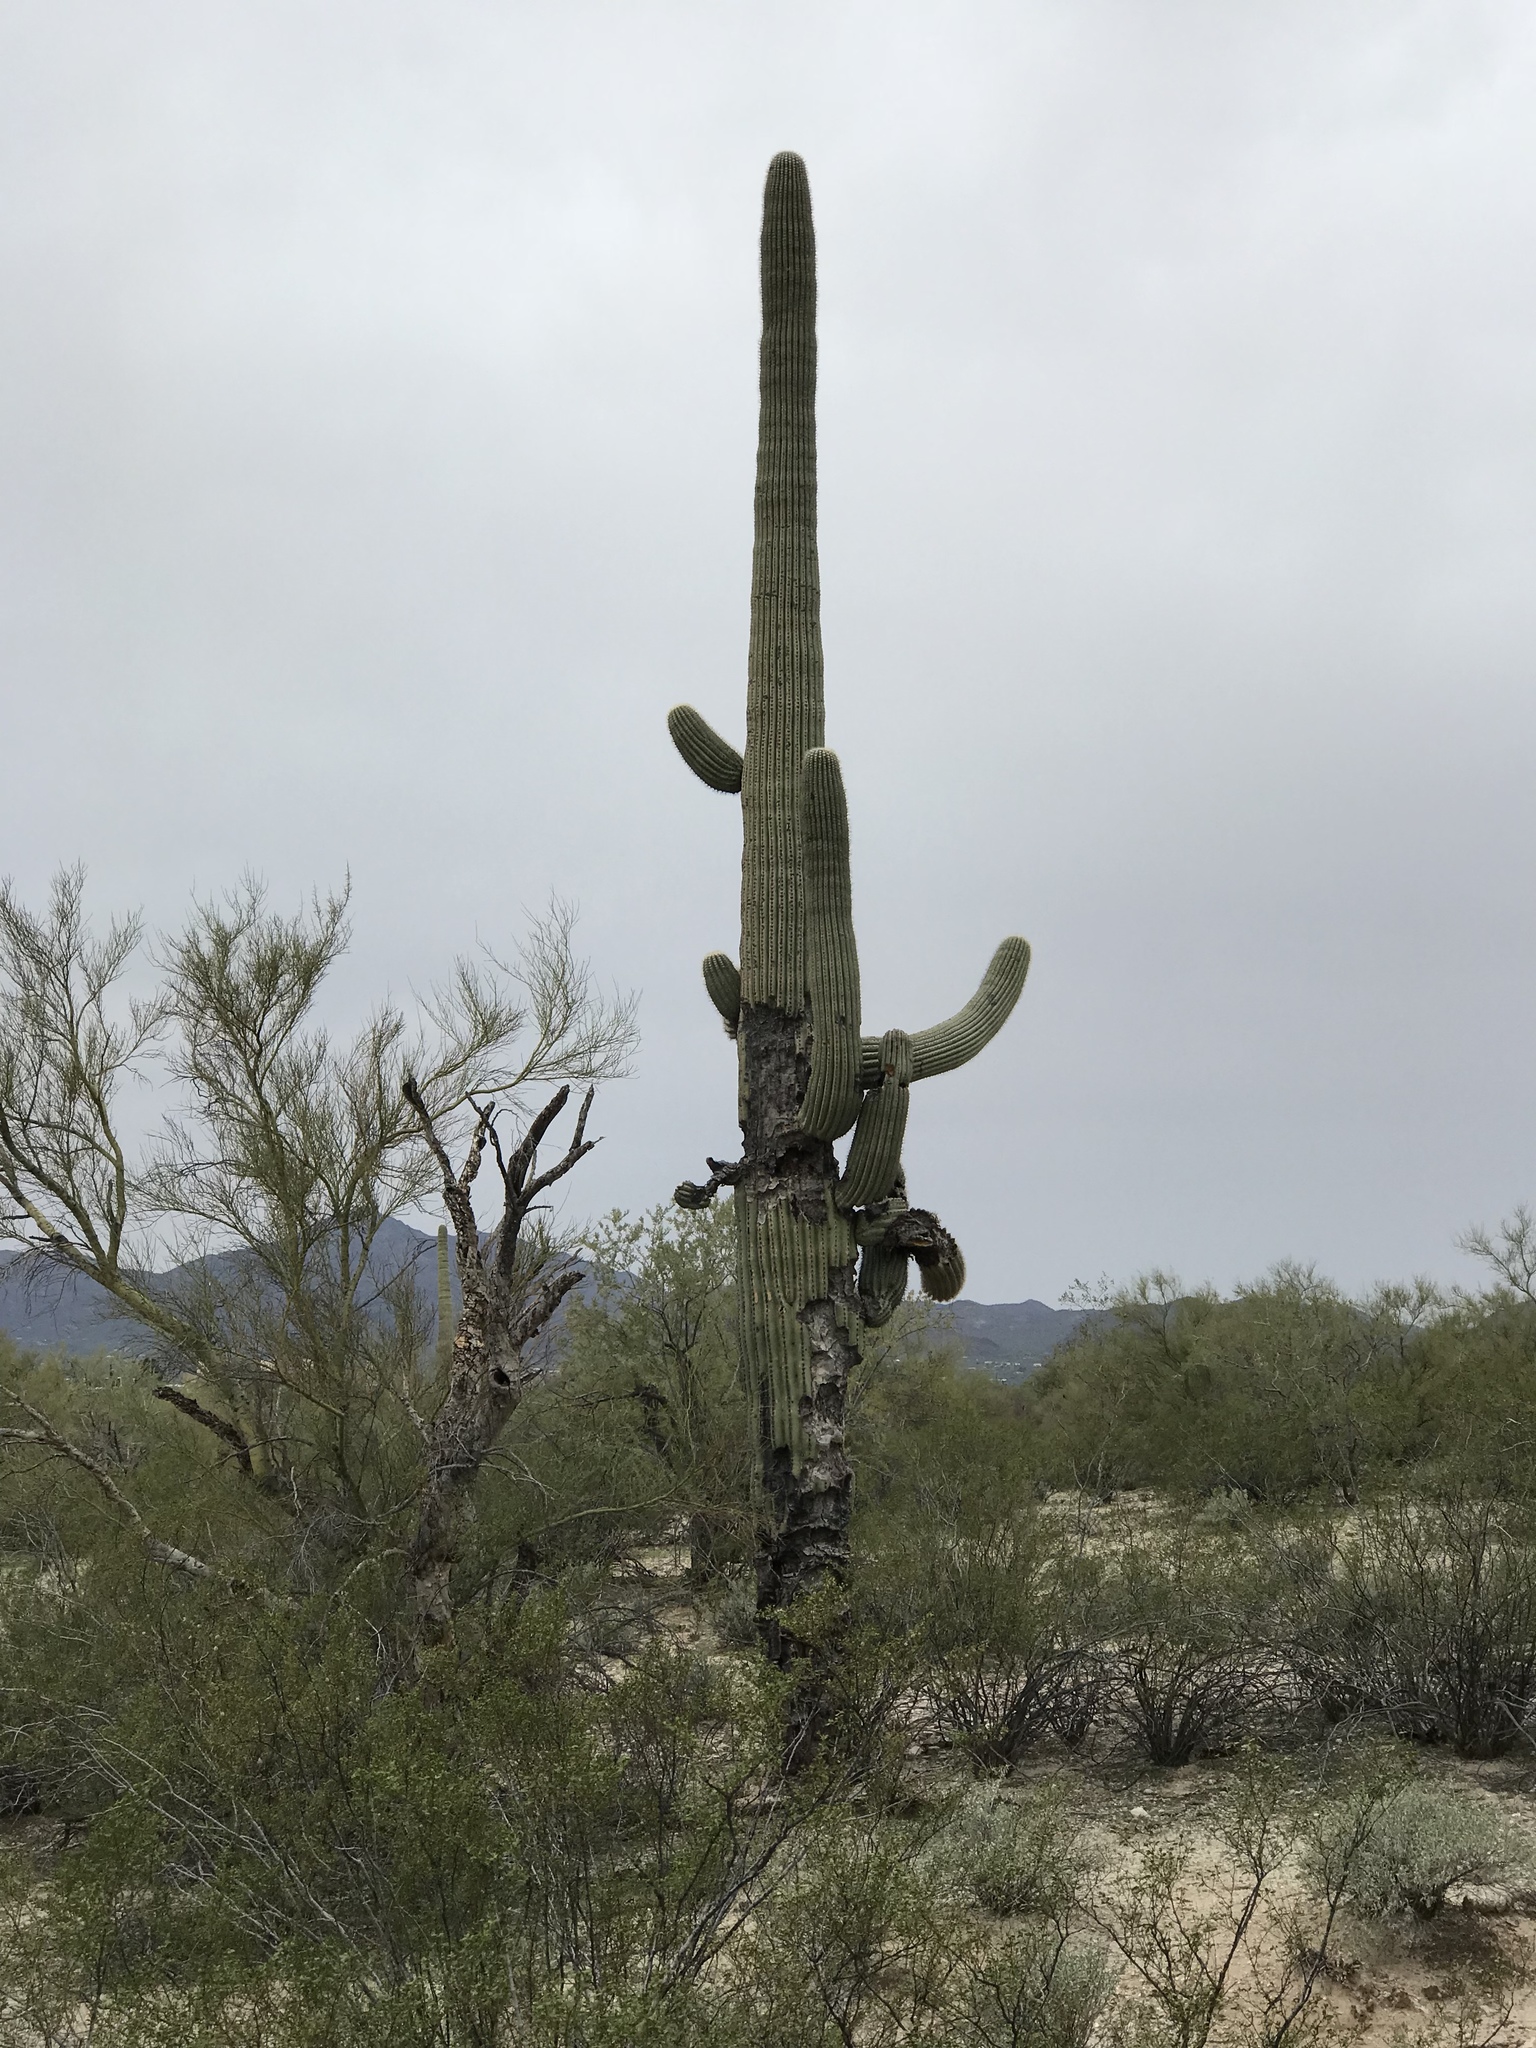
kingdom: Plantae
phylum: Tracheophyta
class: Magnoliopsida
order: Caryophyllales
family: Cactaceae
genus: Carnegiea
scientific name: Carnegiea gigantea
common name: Saguaro
